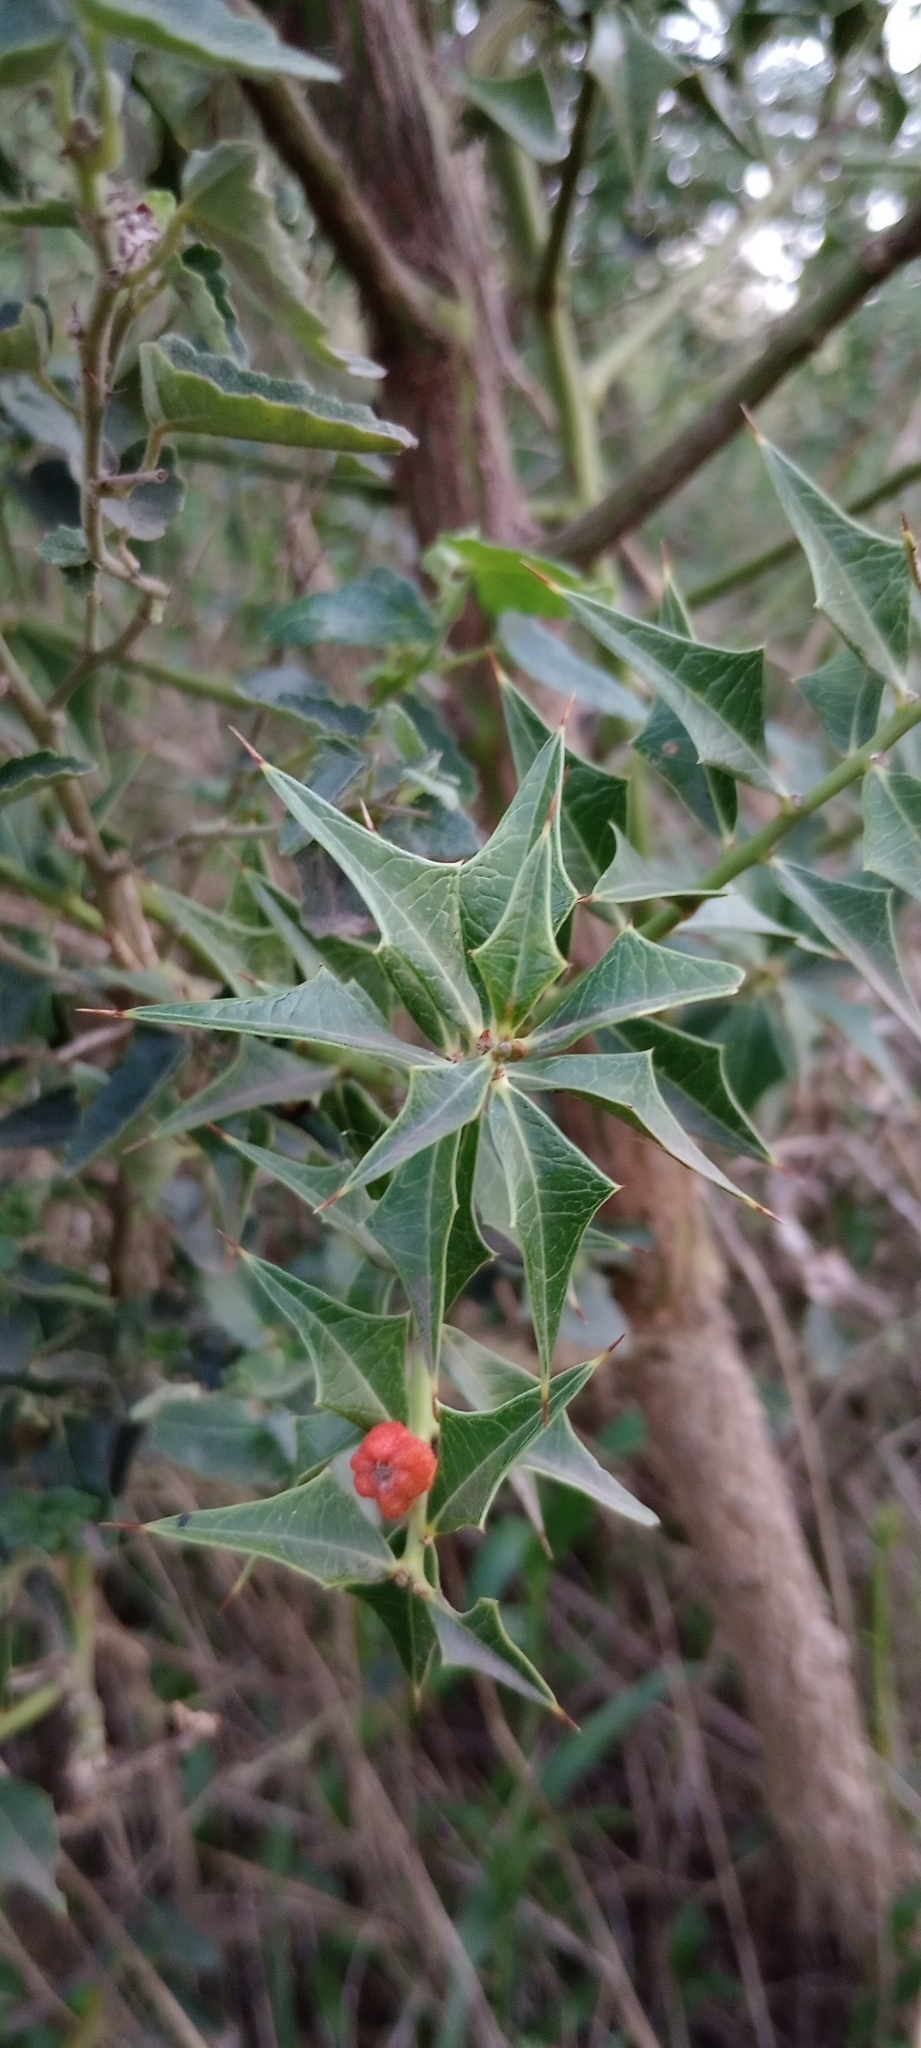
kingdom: Plantae
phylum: Tracheophyta
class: Magnoliopsida
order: Santalales
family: Cervantesiaceae
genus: Jodina
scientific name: Jodina rhombifolia
